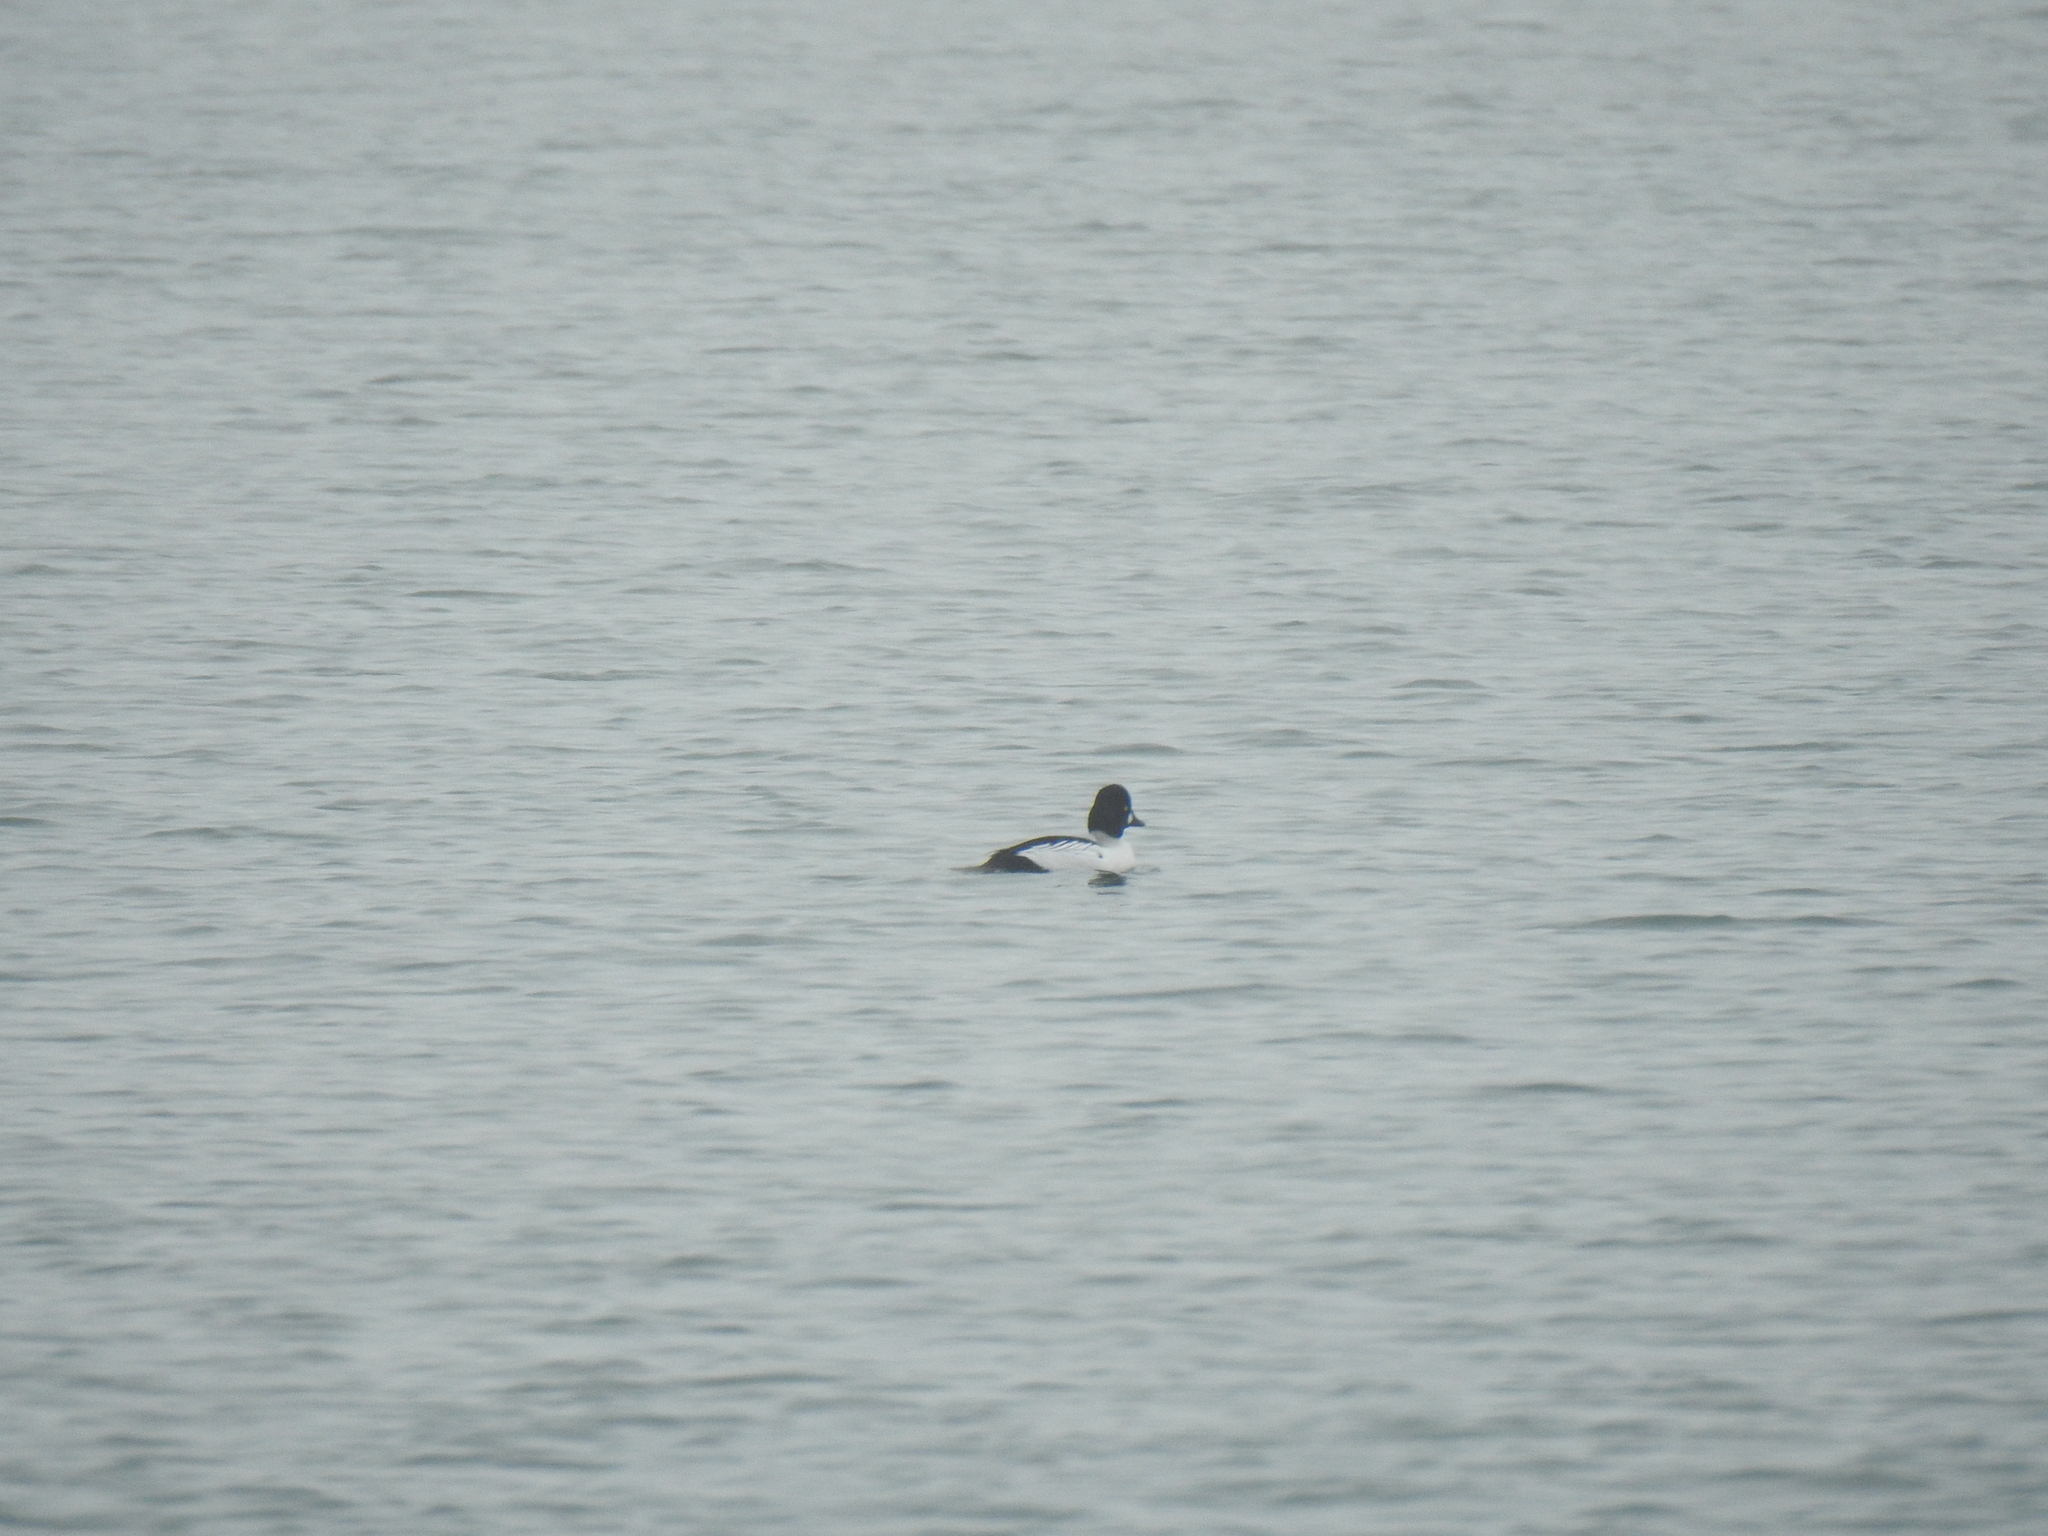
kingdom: Animalia
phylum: Chordata
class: Aves
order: Anseriformes
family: Anatidae
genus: Bucephala
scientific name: Bucephala clangula
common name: Common goldeneye
